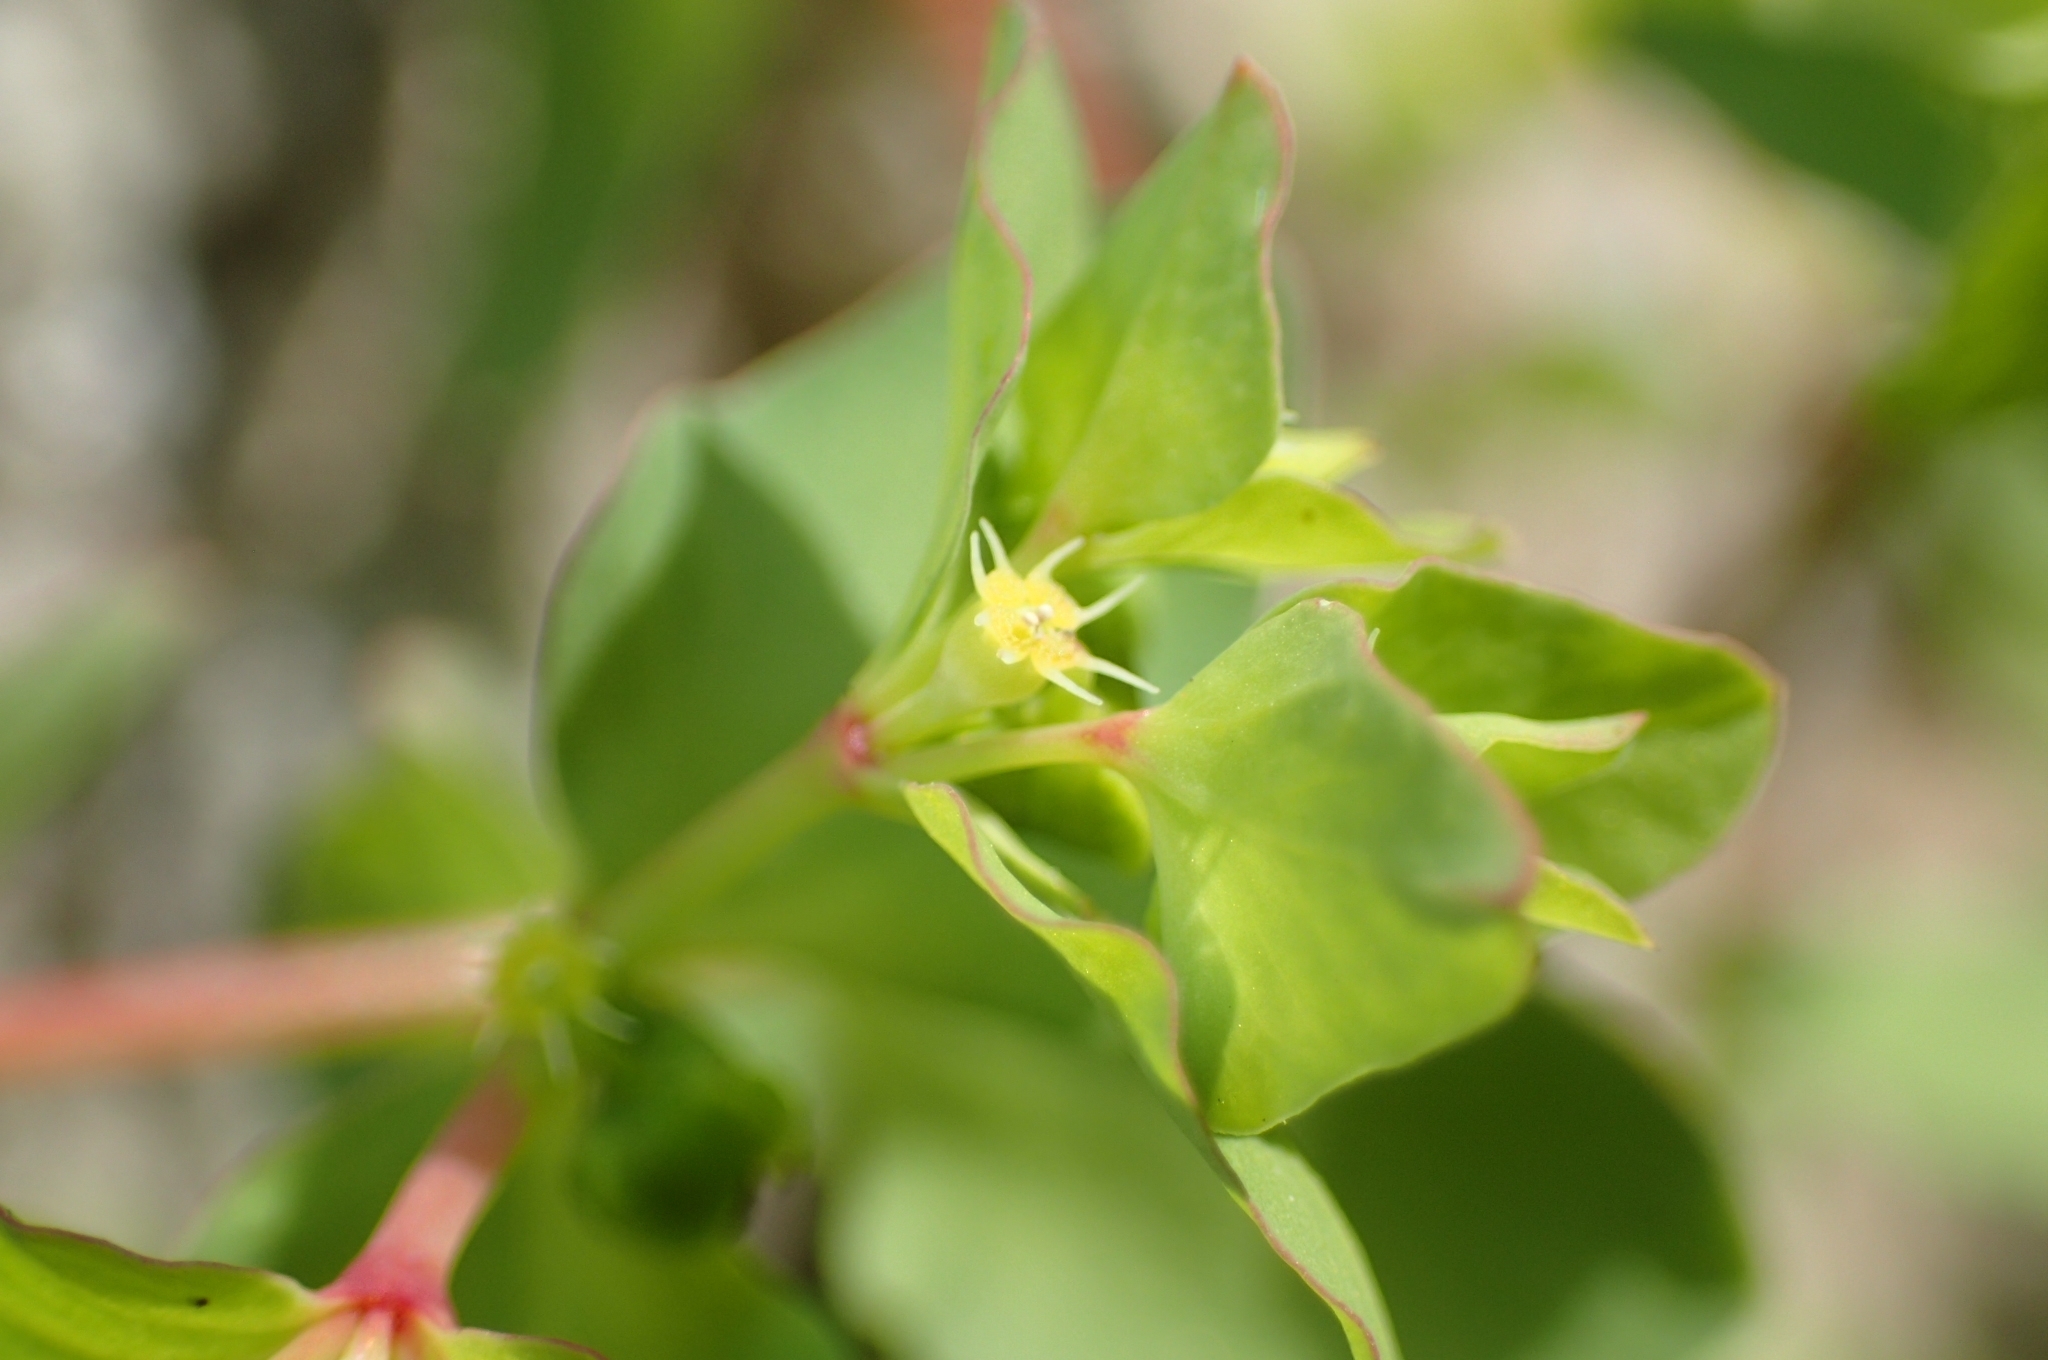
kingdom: Plantae
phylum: Tracheophyta
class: Magnoliopsida
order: Malpighiales
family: Euphorbiaceae
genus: Euphorbia
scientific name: Euphorbia peplus
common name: Petty spurge
